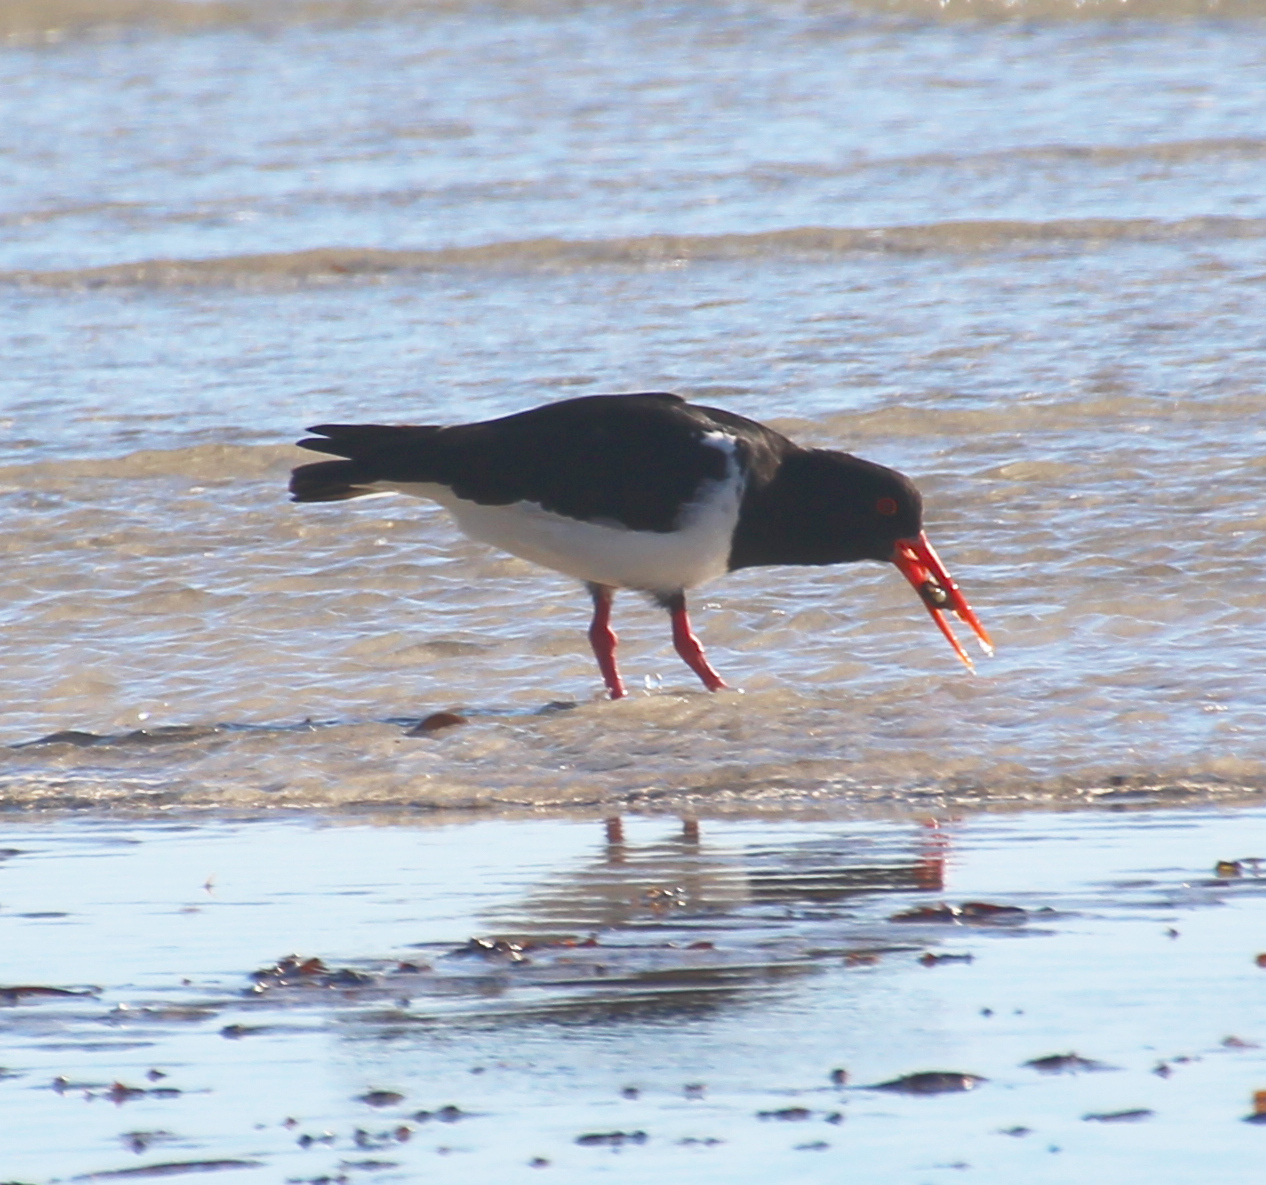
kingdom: Animalia
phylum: Chordata
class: Aves
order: Charadriiformes
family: Haematopodidae
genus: Haematopus
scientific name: Haematopus longirostris
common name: Pied oystercatcher
